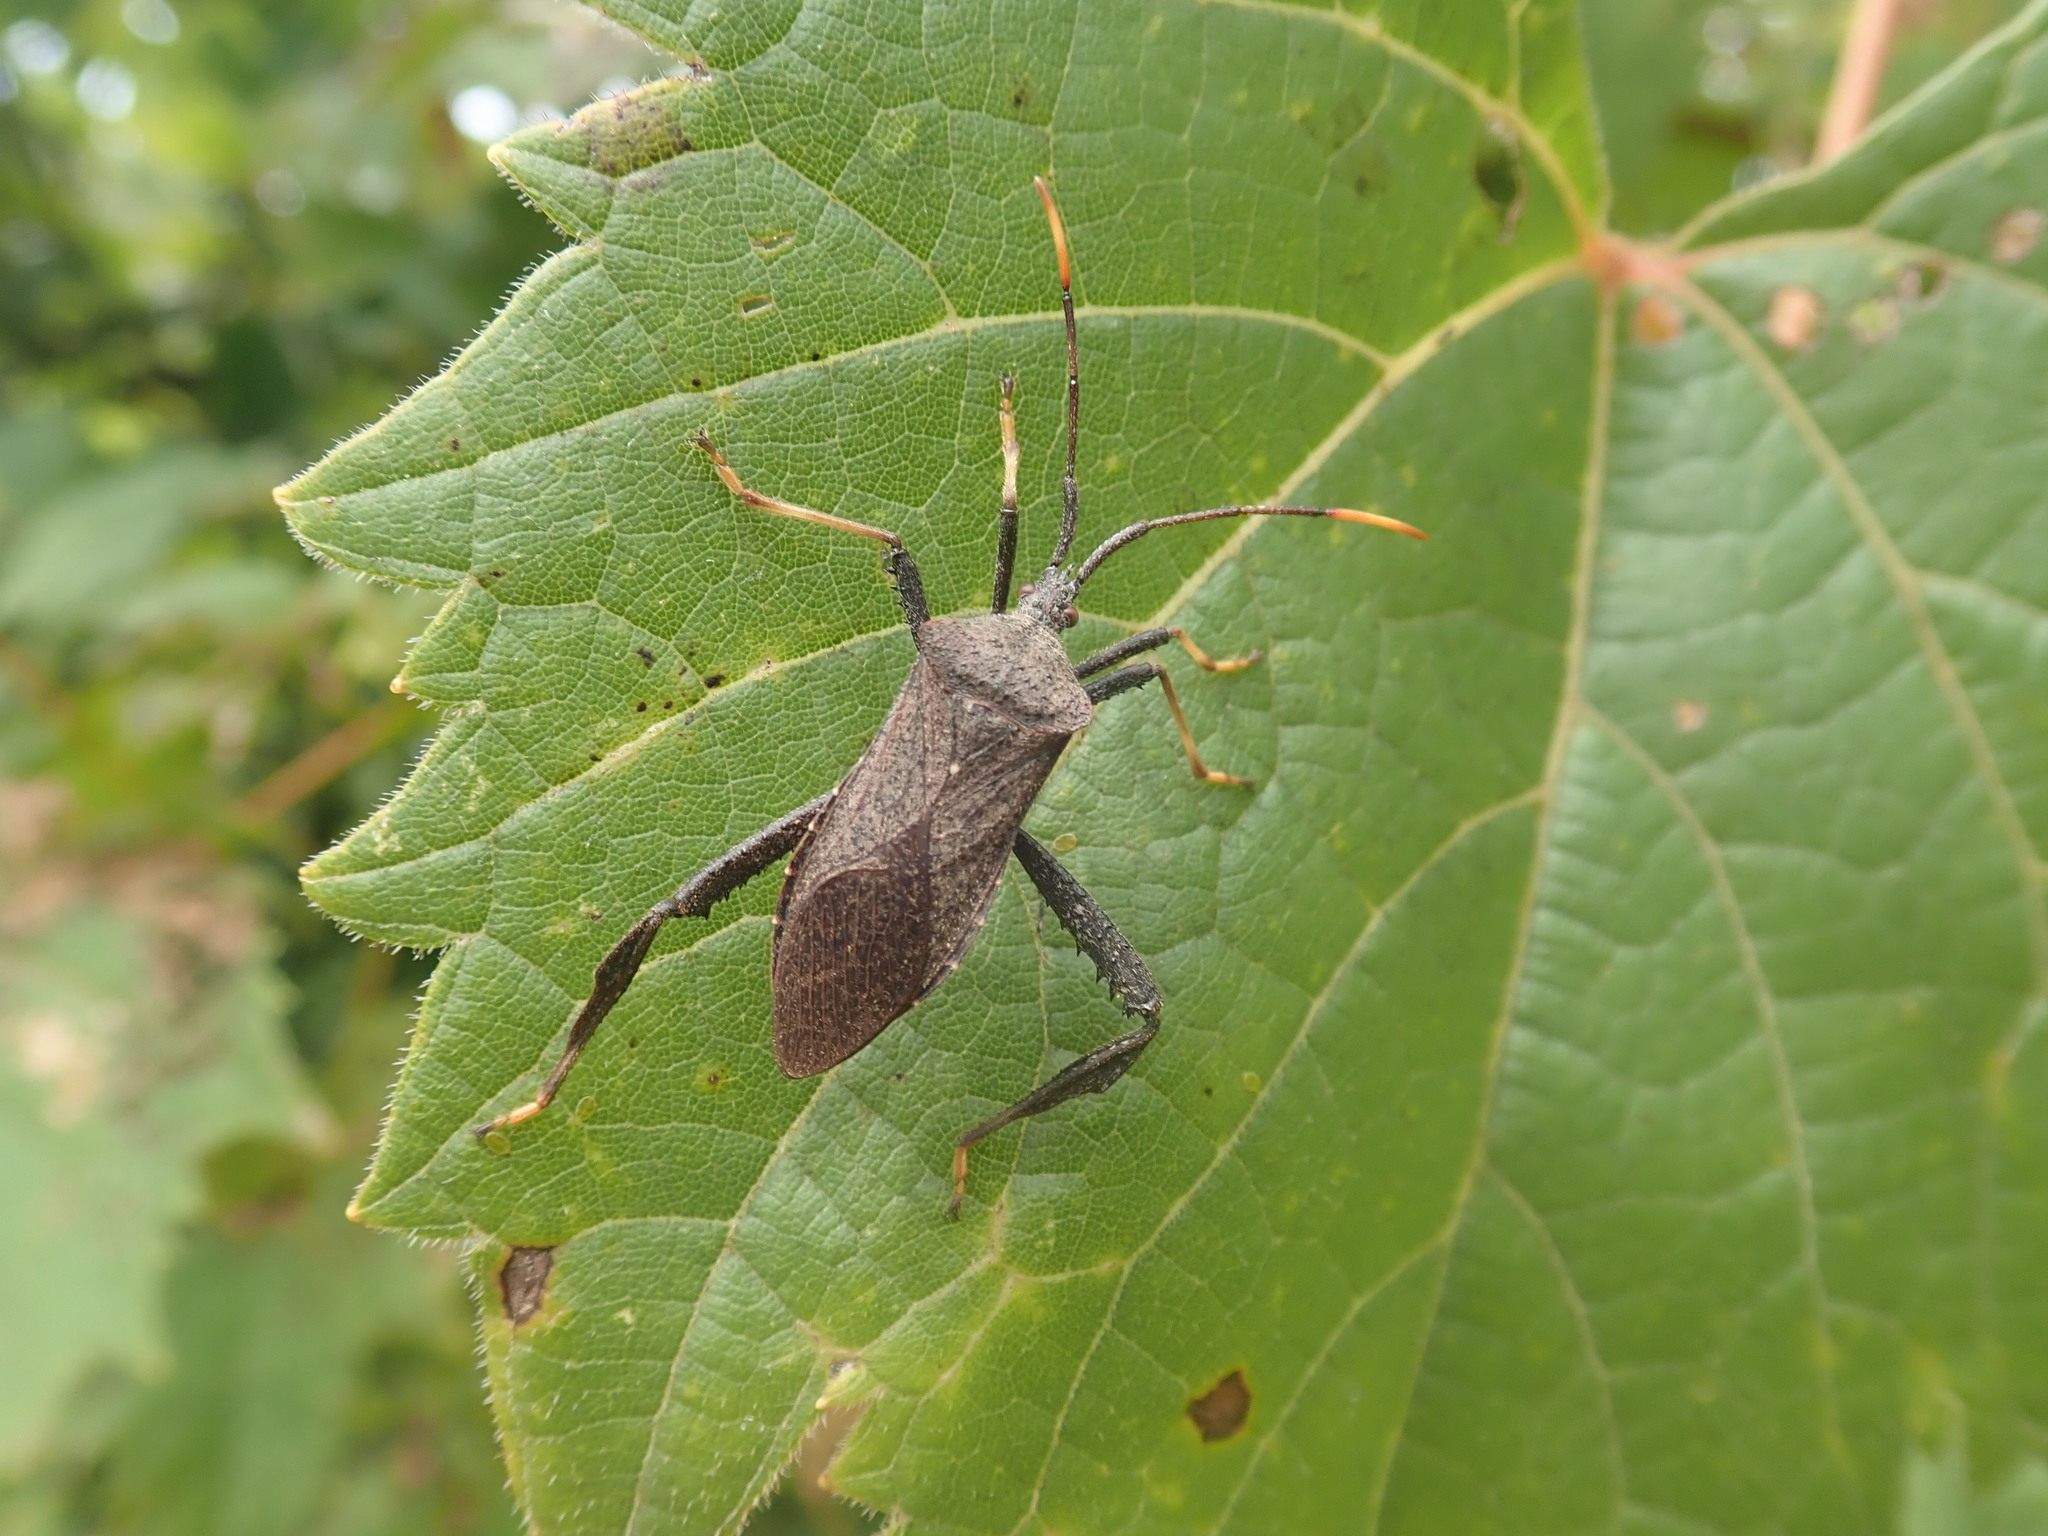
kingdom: Animalia
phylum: Arthropoda
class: Insecta
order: Hemiptera
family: Coreidae
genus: Acanthocephala
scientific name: Acanthocephala terminalis
